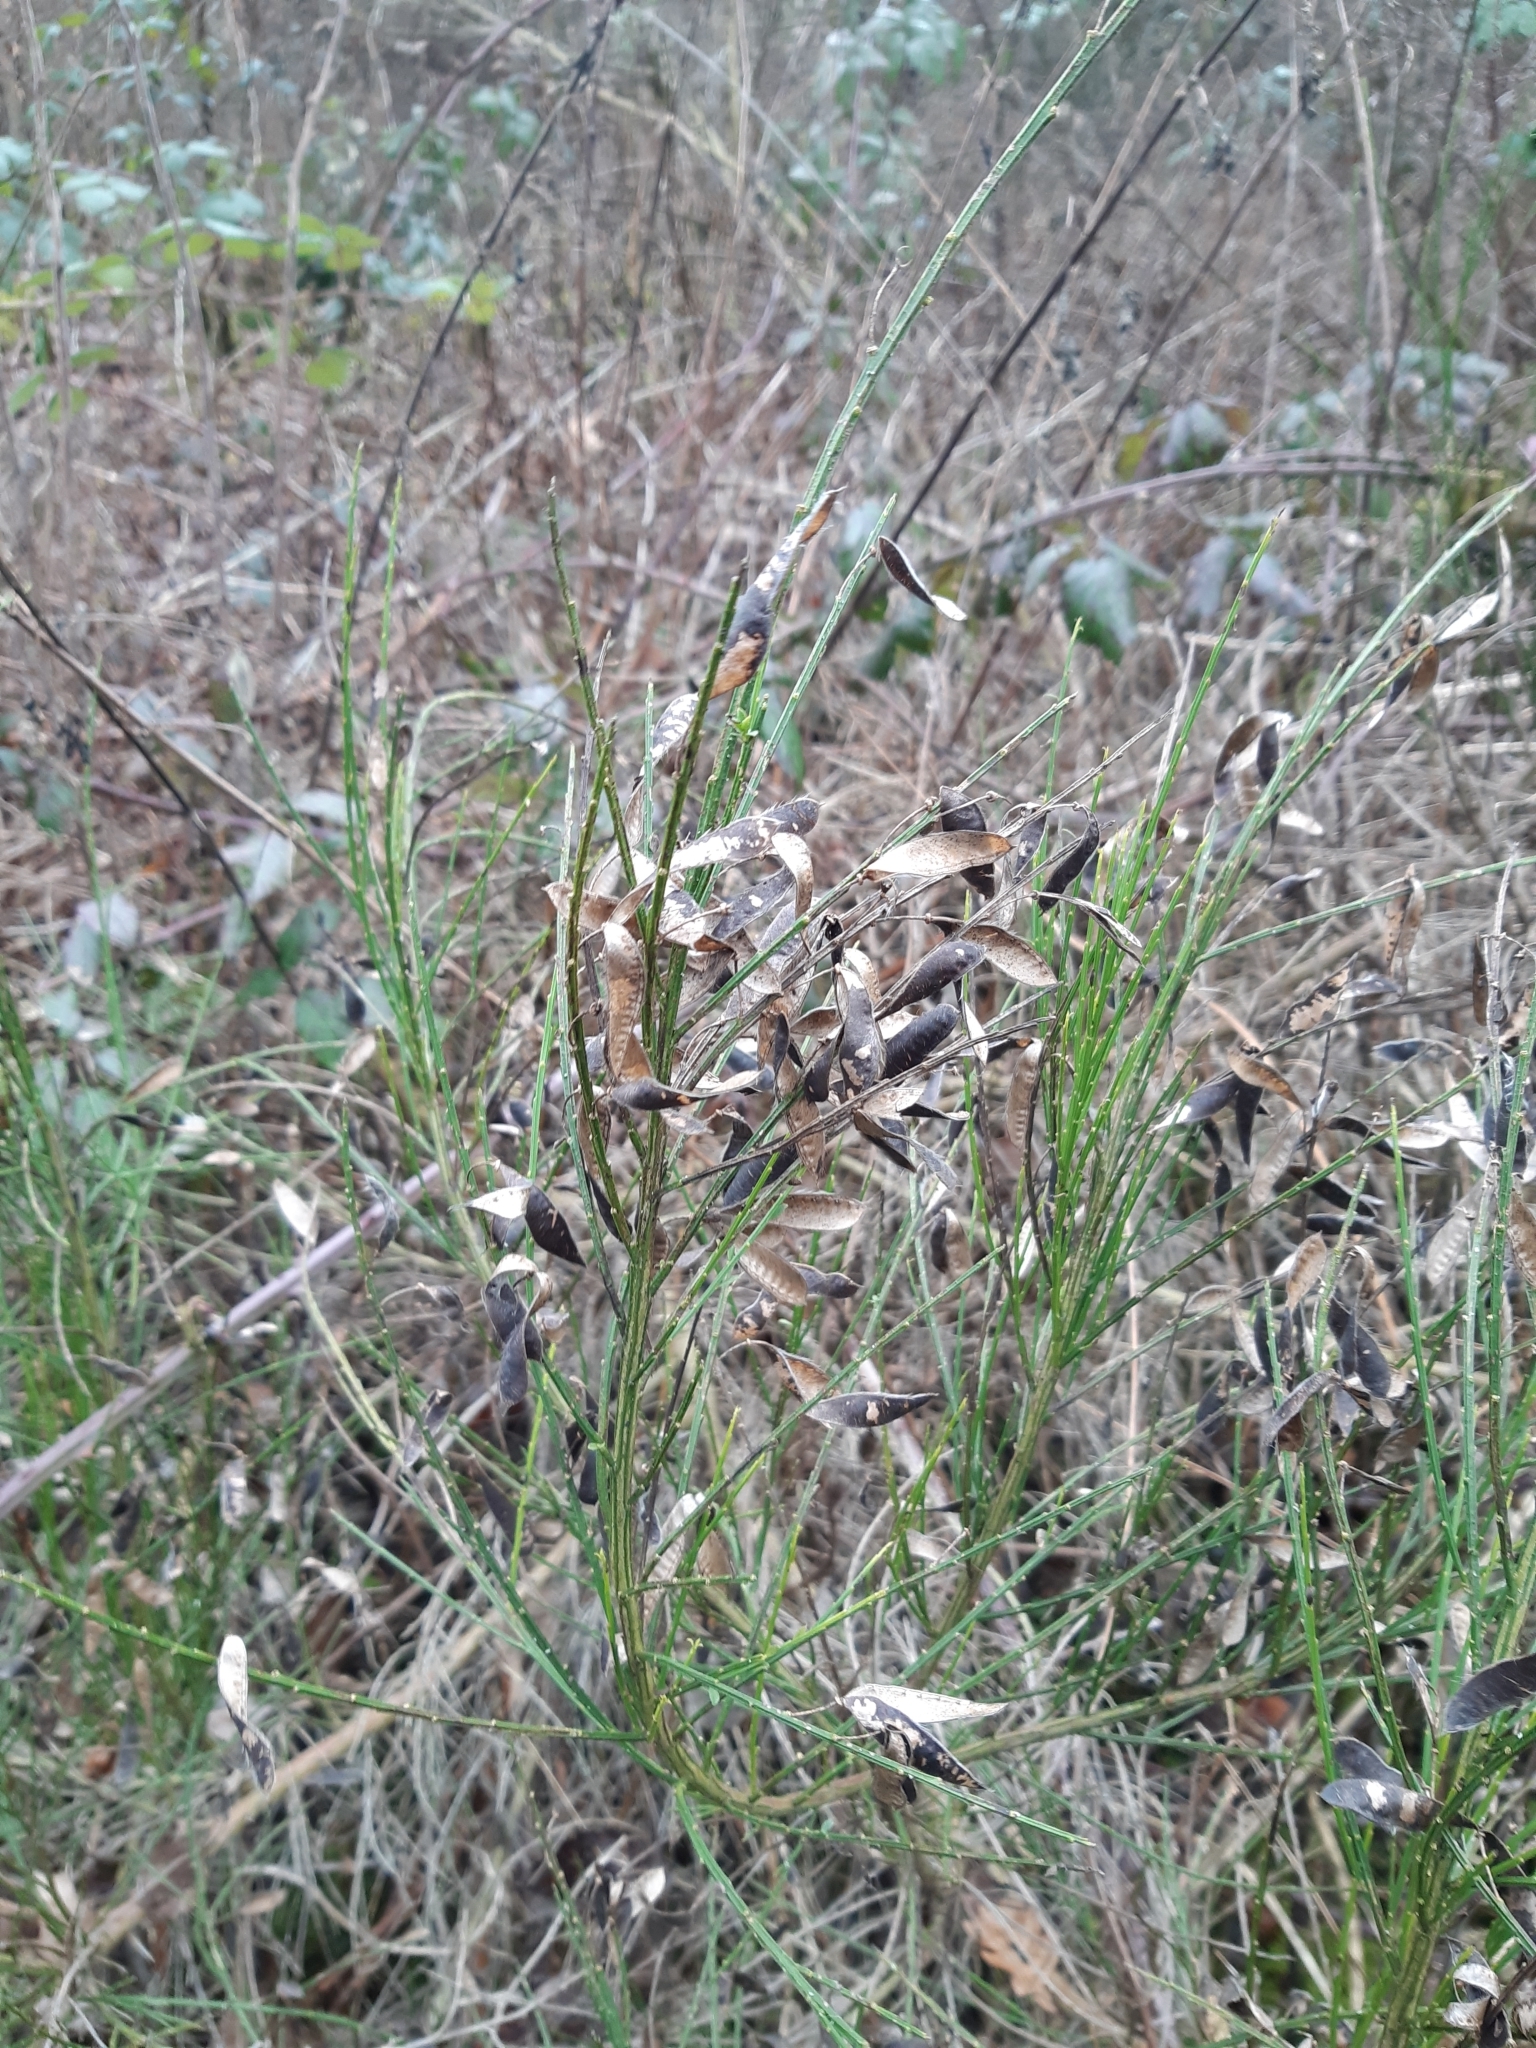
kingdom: Plantae
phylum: Tracheophyta
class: Magnoliopsida
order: Fabales
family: Fabaceae
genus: Cytisus
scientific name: Cytisus scoparius
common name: Scotch broom
